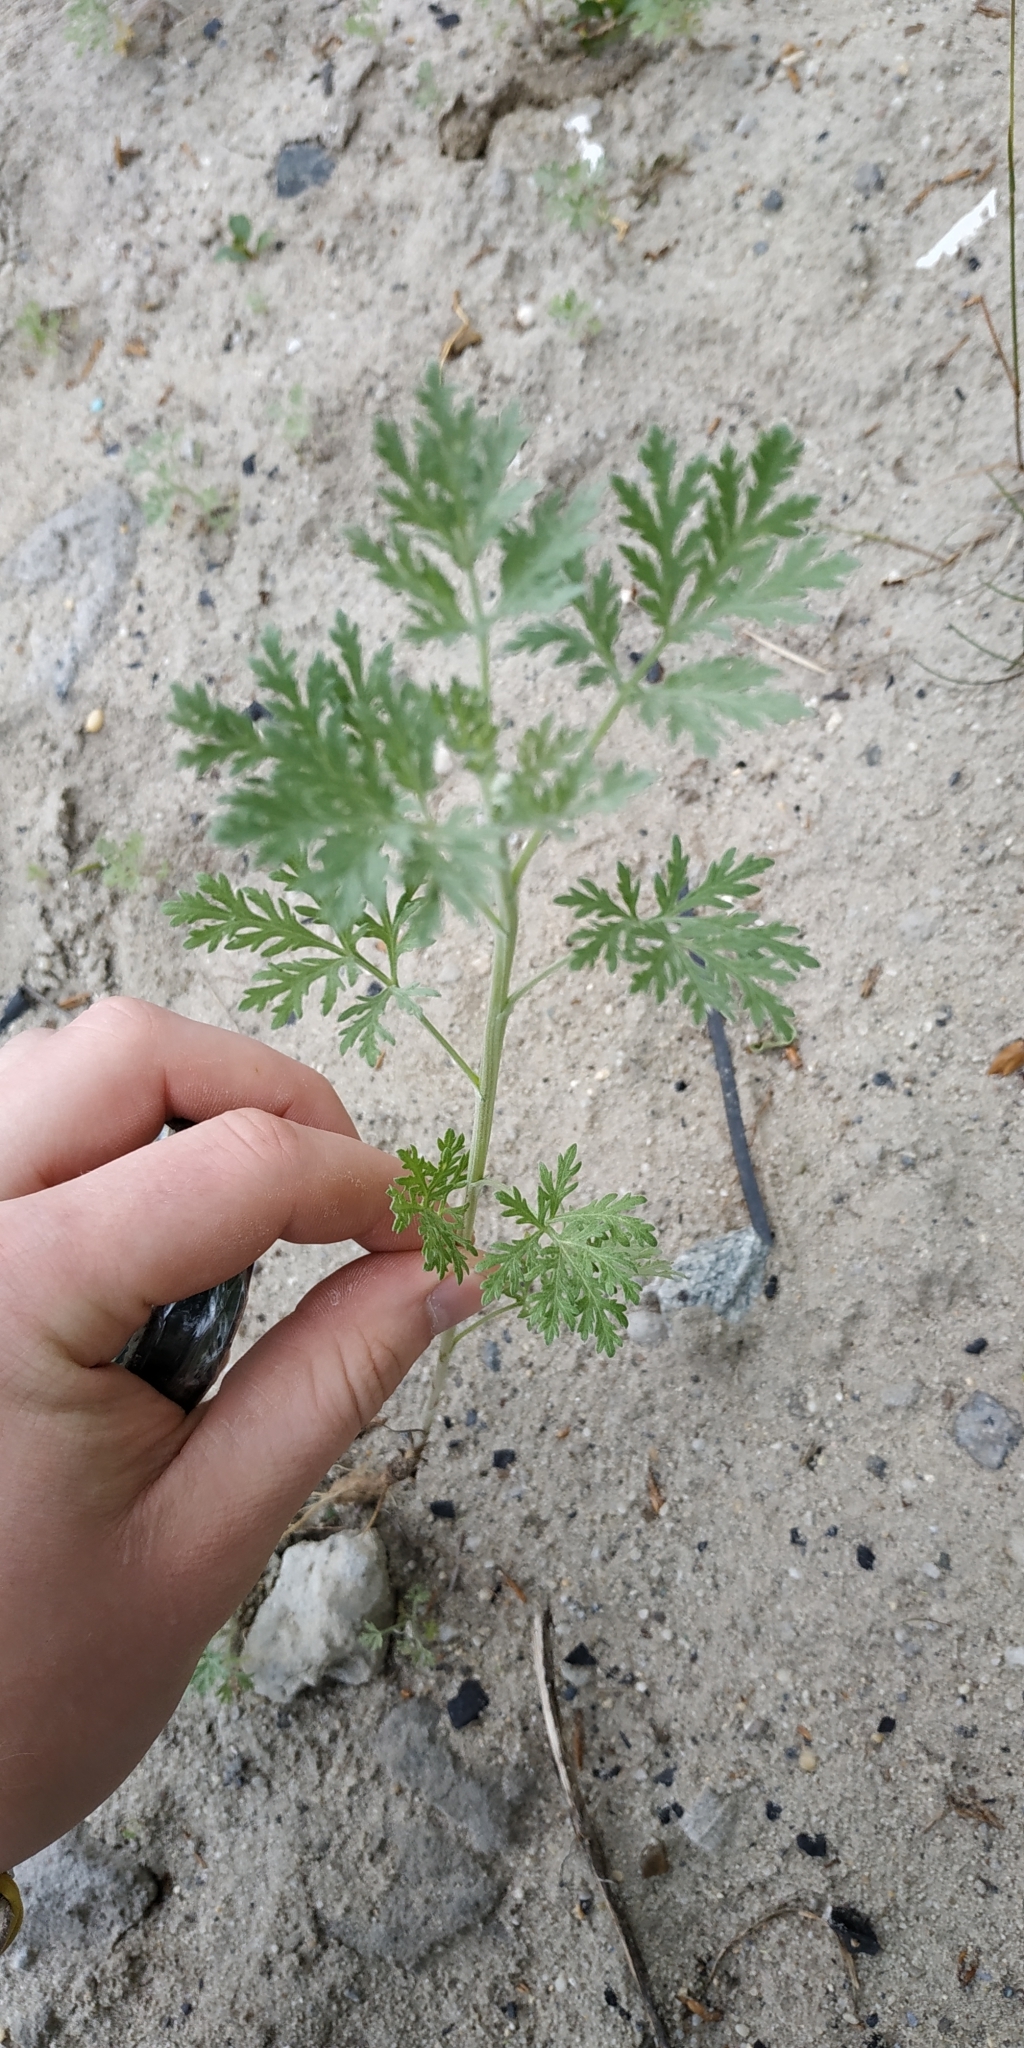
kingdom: Plantae
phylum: Tracheophyta
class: Magnoliopsida
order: Asterales
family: Asteraceae
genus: Artemisia
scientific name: Artemisia sieversiana
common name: Sieversian wormwood
